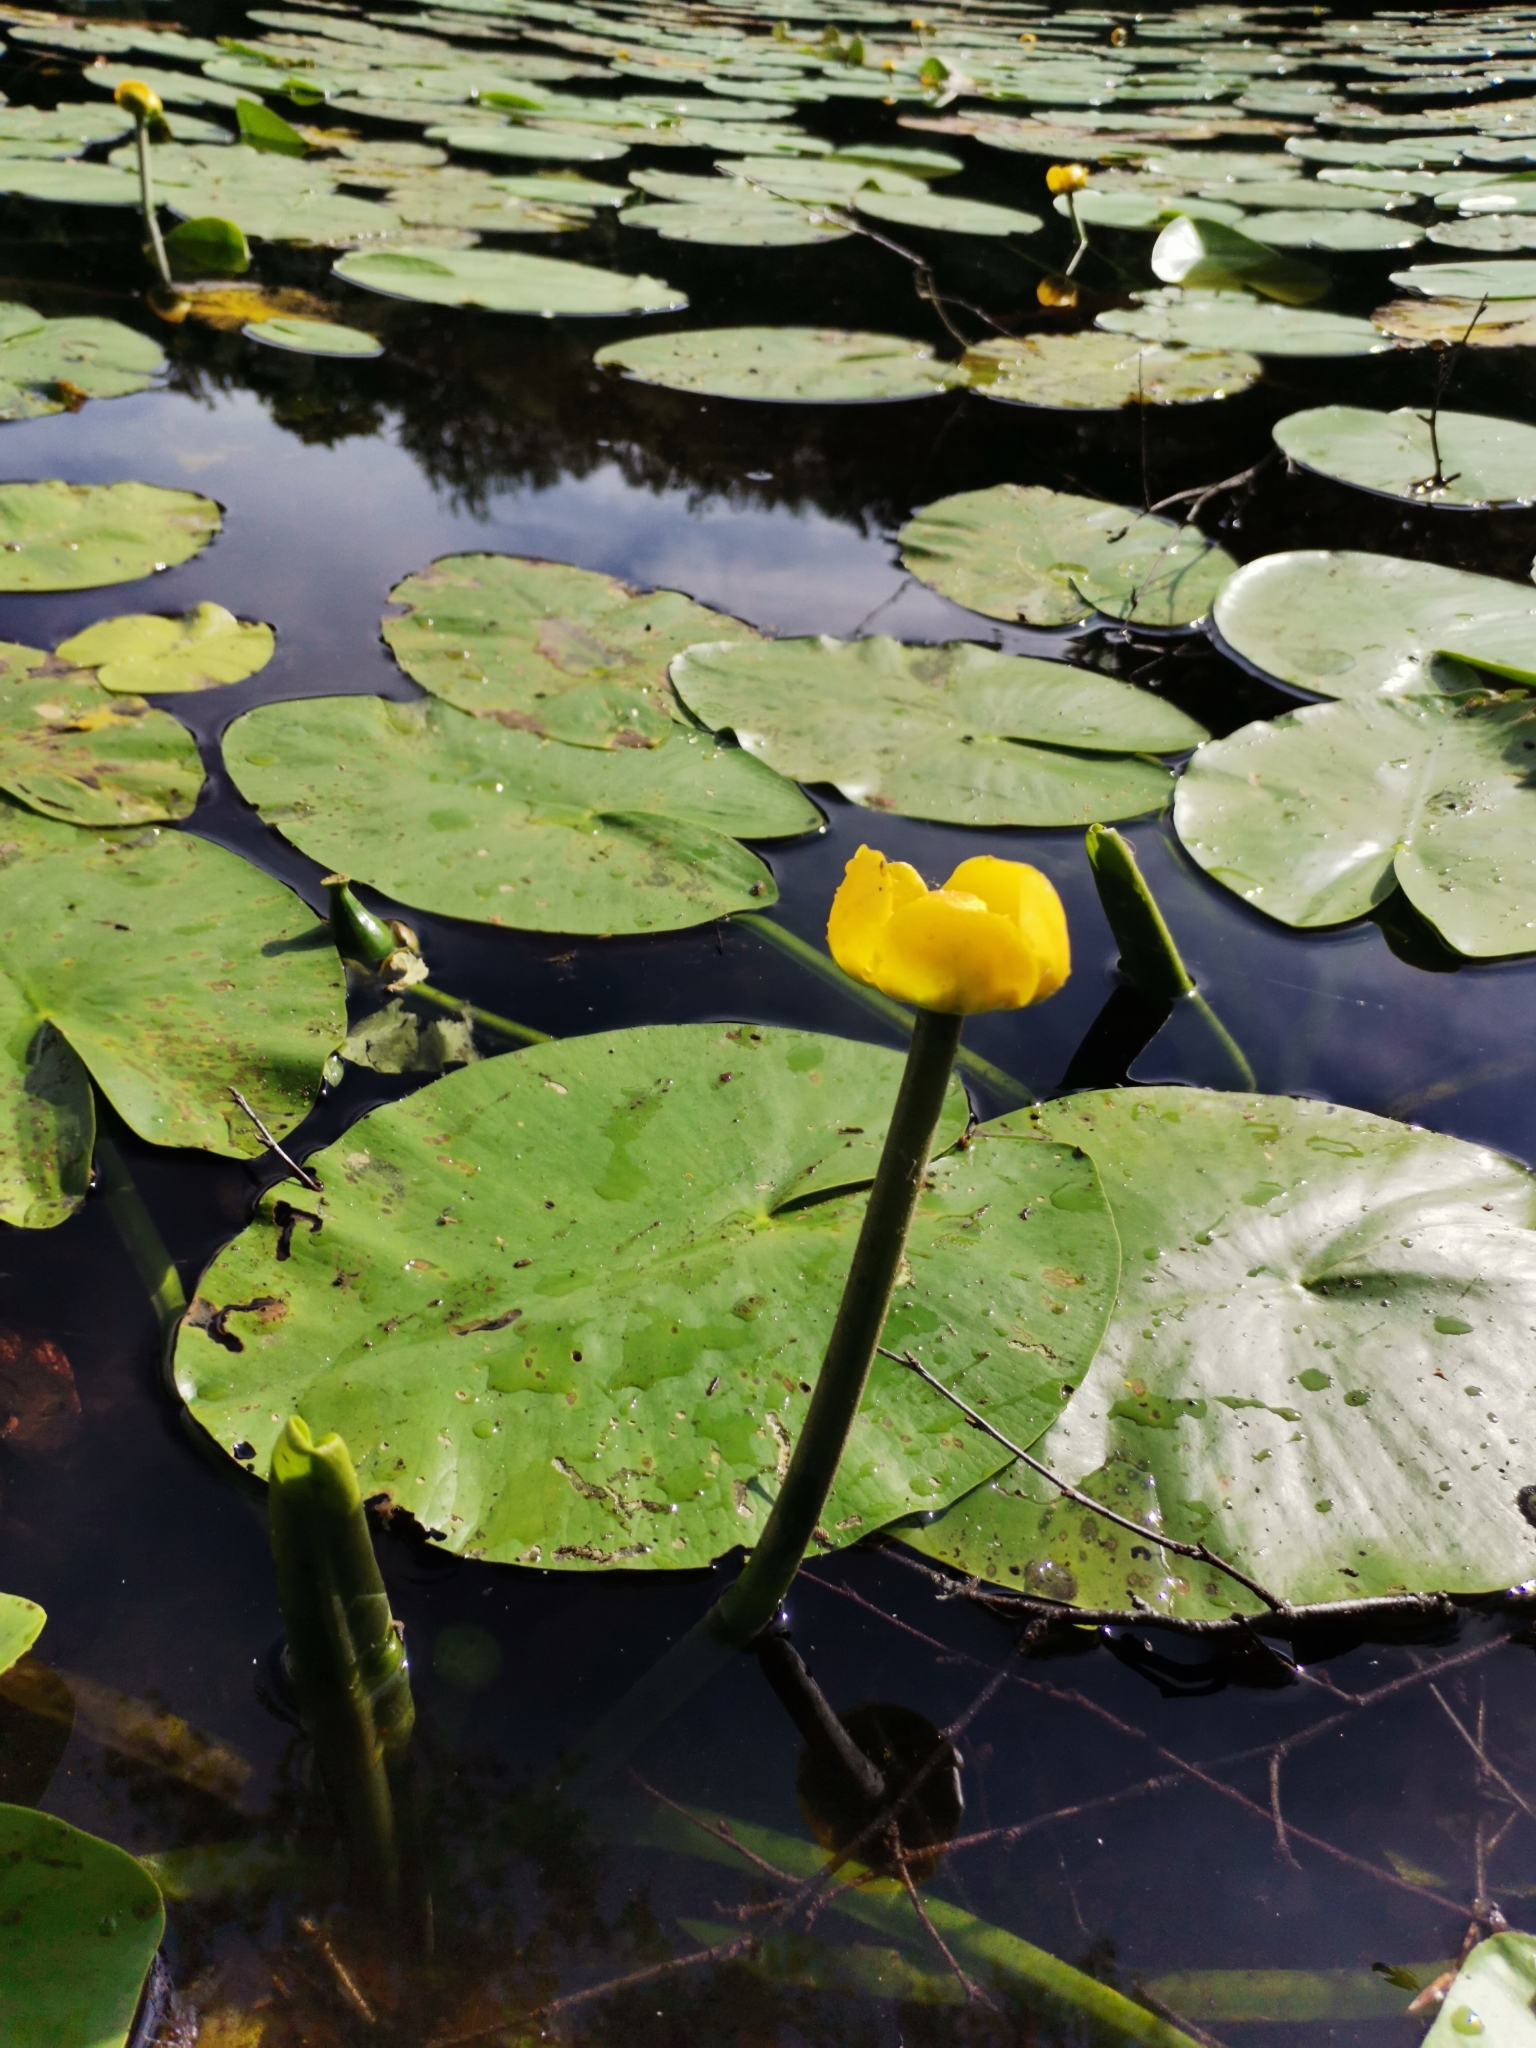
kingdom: Plantae
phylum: Tracheophyta
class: Magnoliopsida
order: Nymphaeales
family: Nymphaeaceae
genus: Nuphar
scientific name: Nuphar lutea
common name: Yellow water-lily
